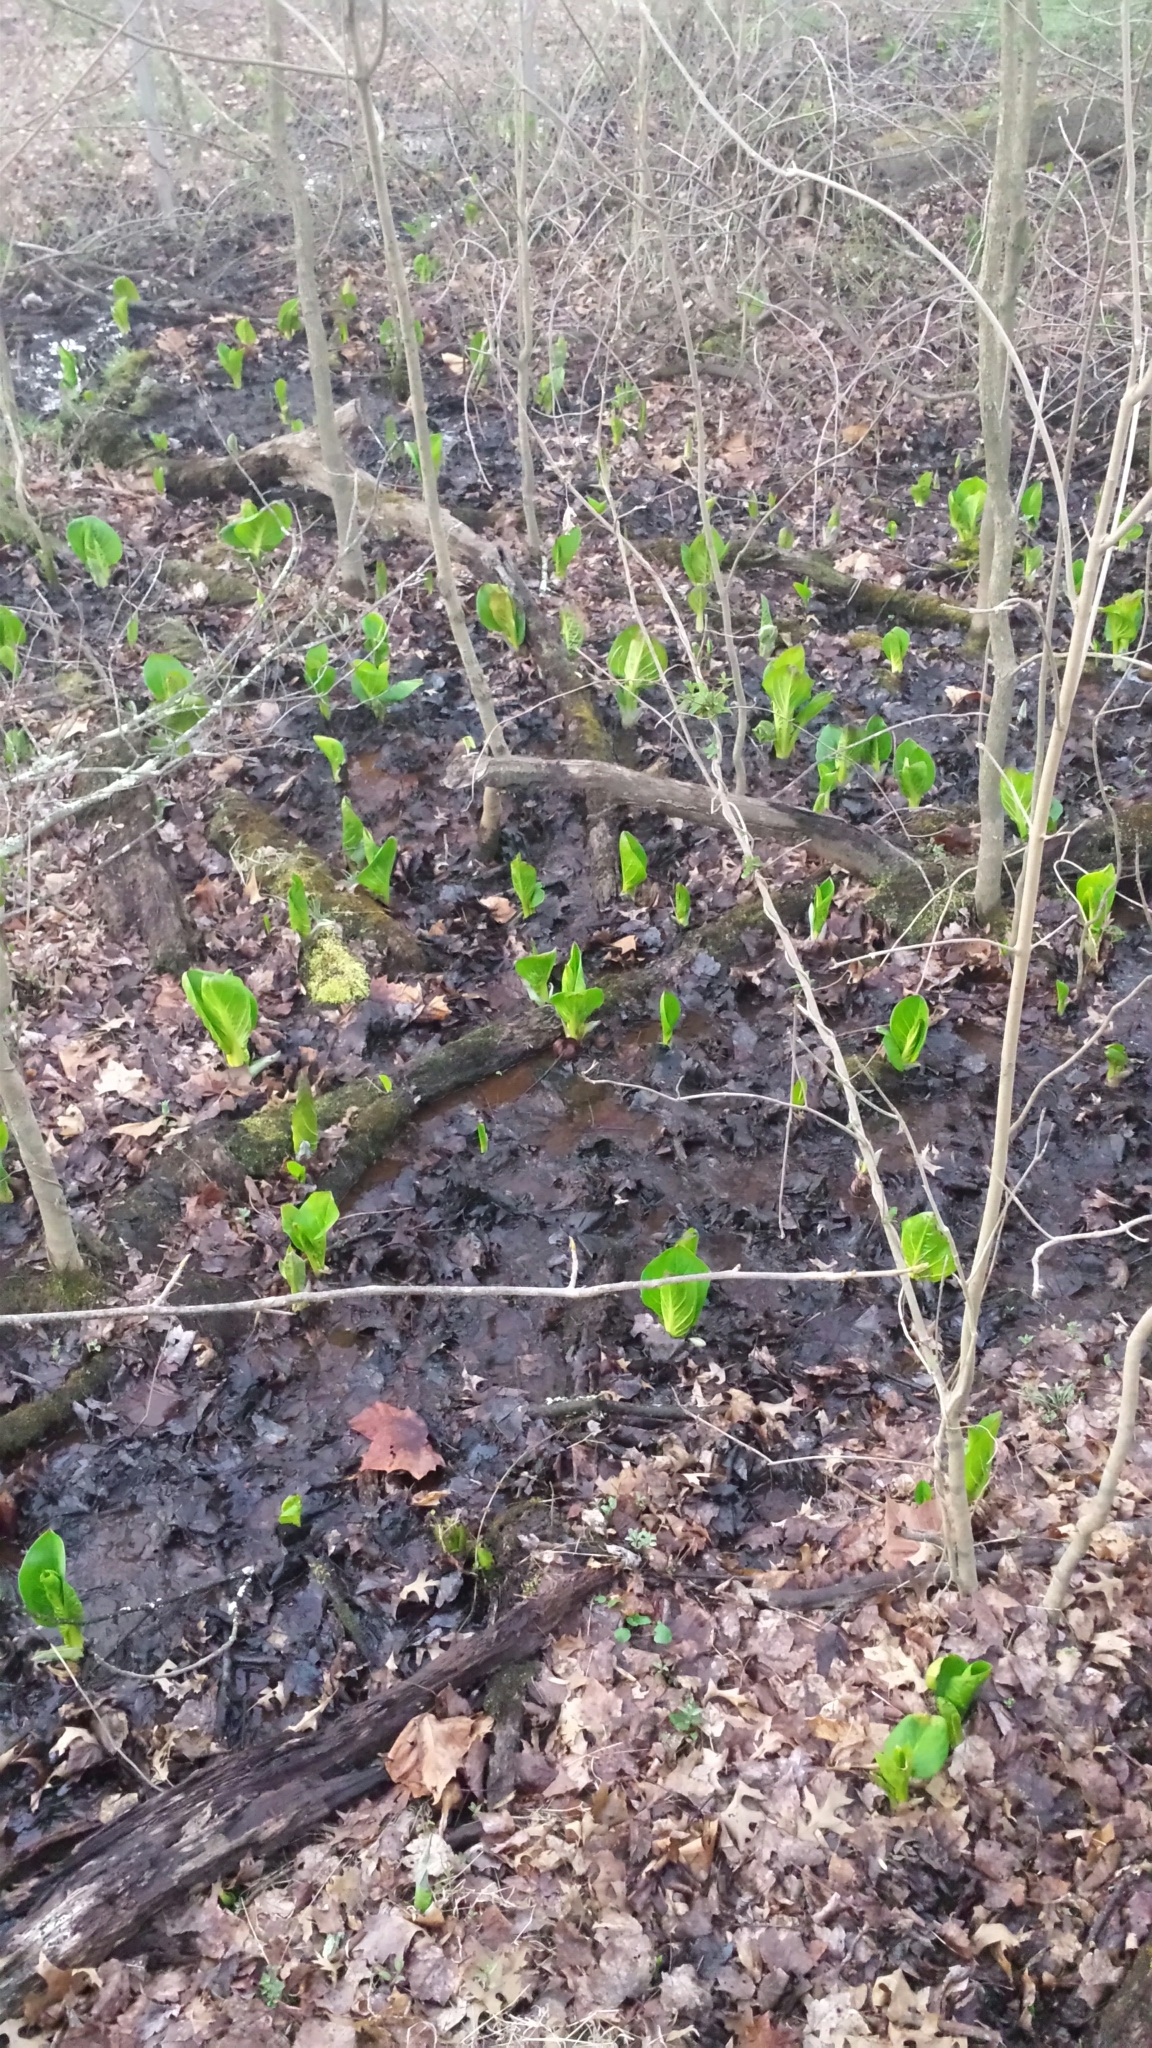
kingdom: Plantae
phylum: Tracheophyta
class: Liliopsida
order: Alismatales
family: Araceae
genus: Symplocarpus
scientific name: Symplocarpus foetidus
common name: Eastern skunk cabbage
